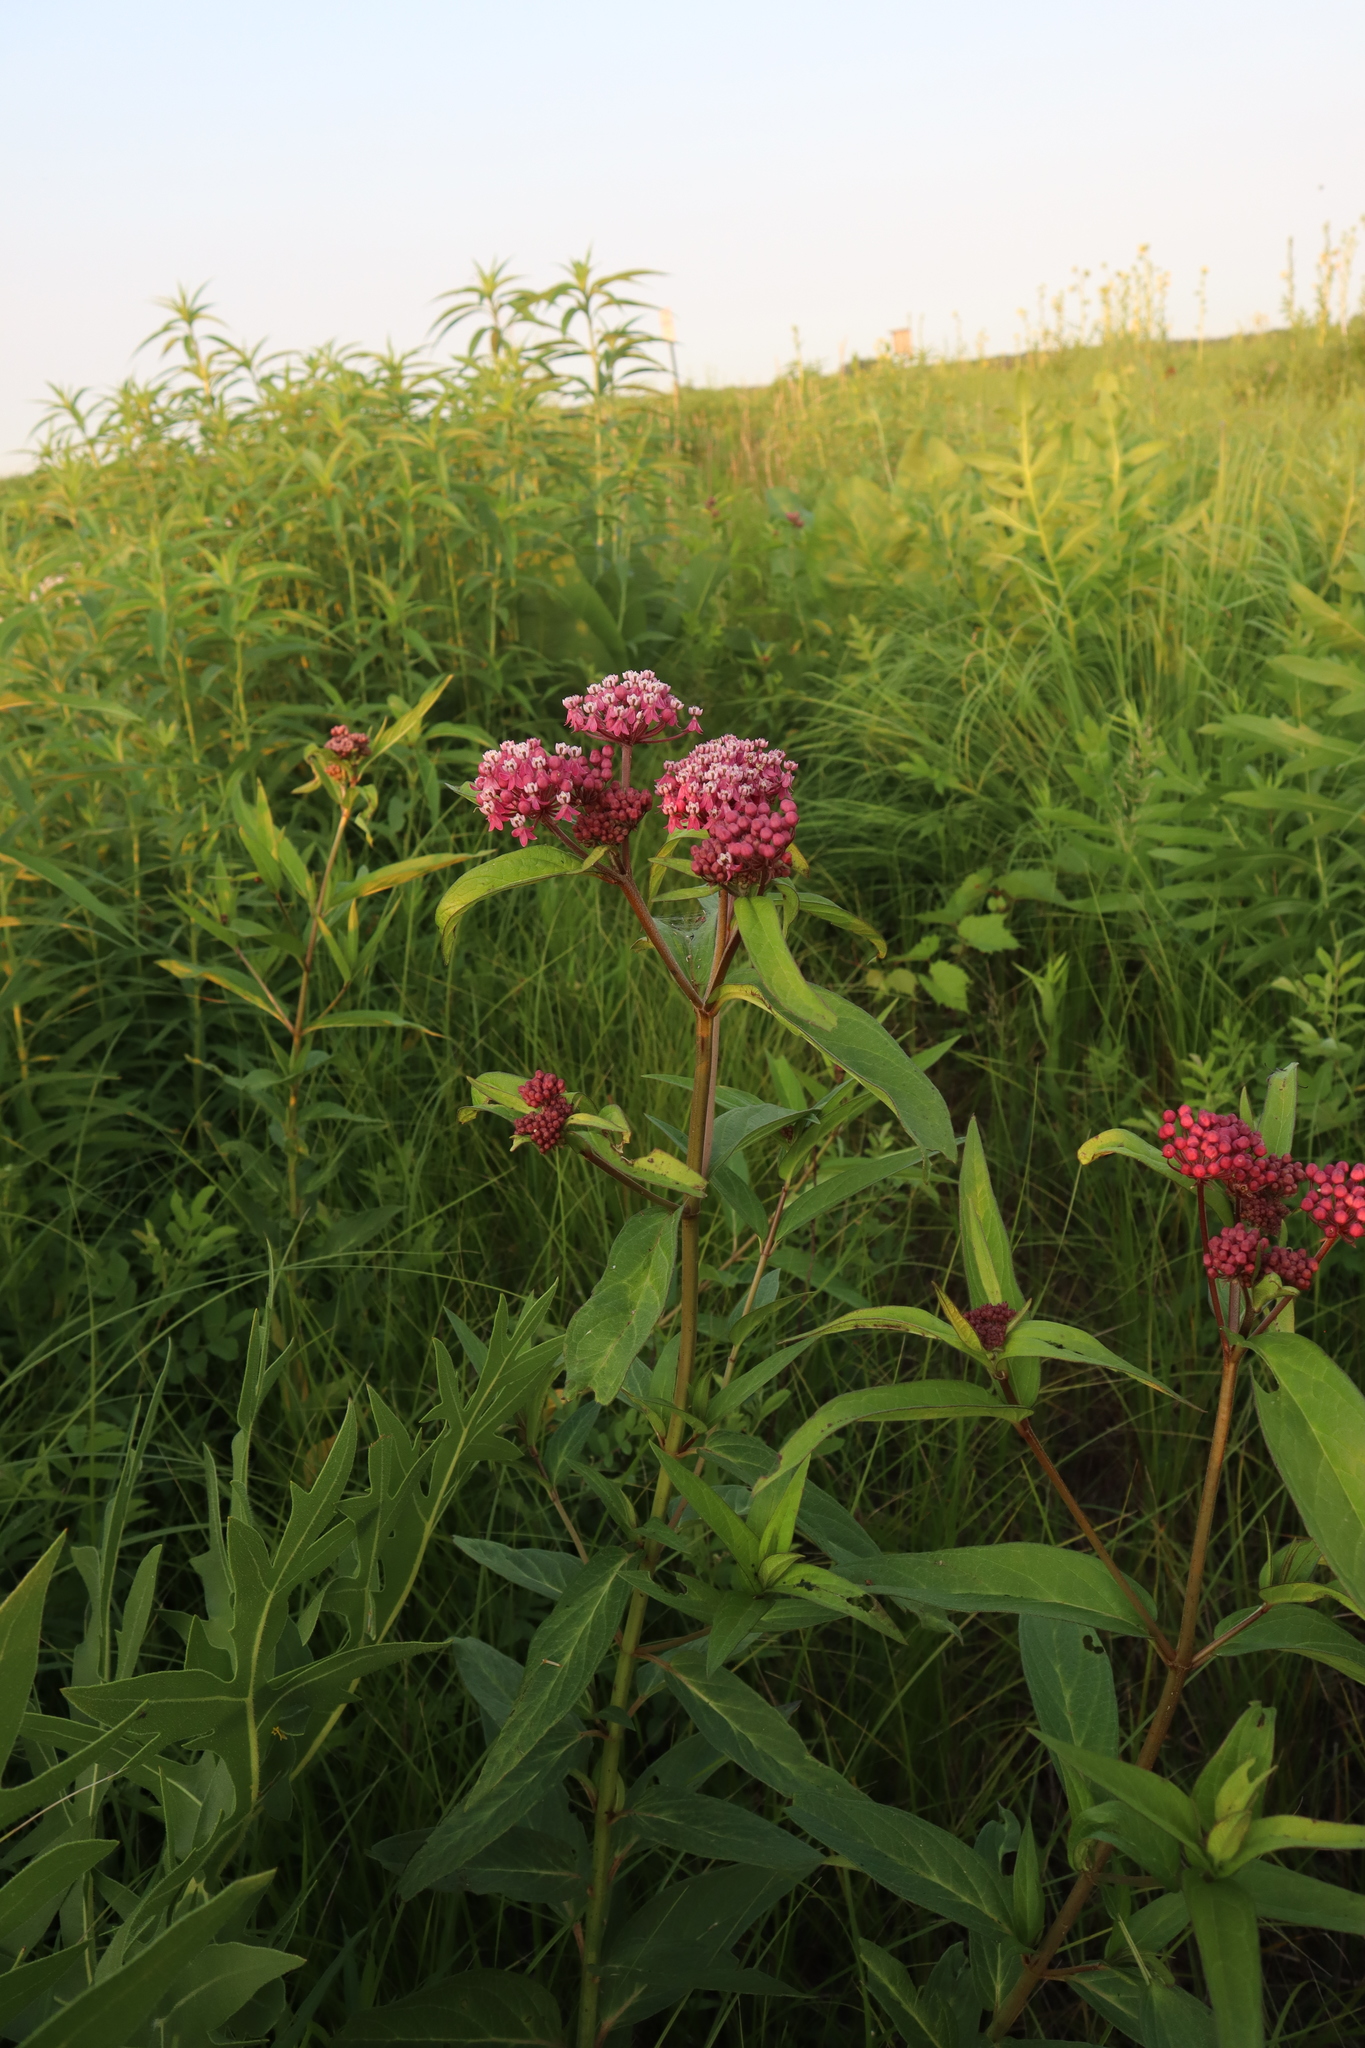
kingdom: Plantae
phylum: Tracheophyta
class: Magnoliopsida
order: Gentianales
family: Apocynaceae
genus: Asclepias
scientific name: Asclepias incarnata
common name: Swamp milkweed
